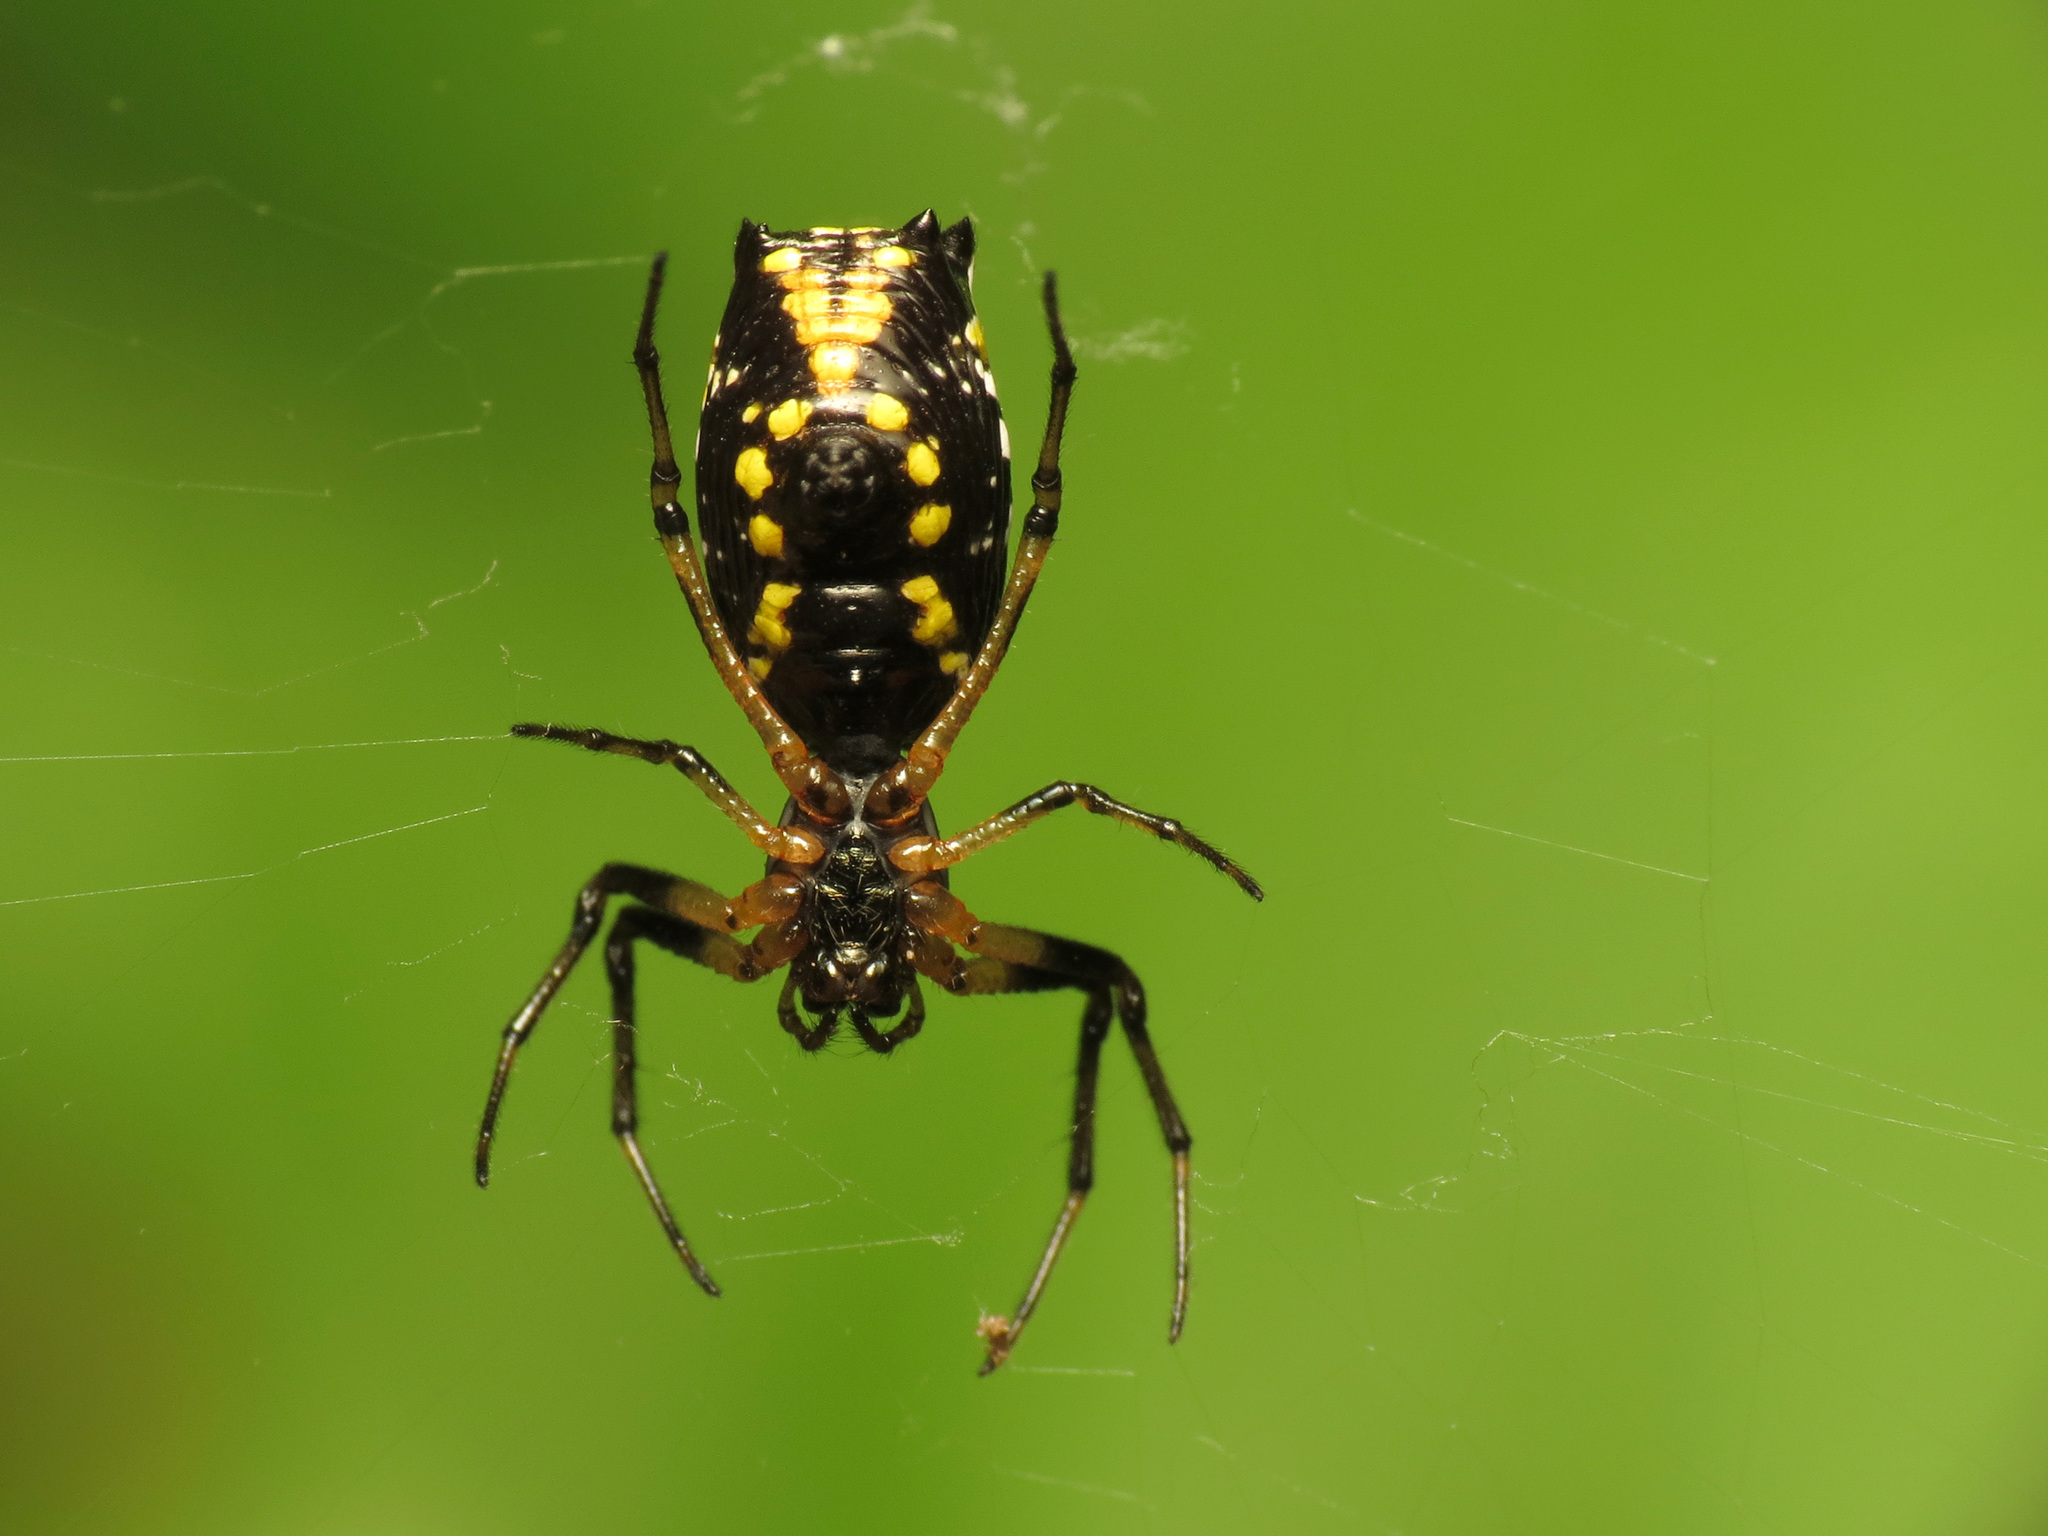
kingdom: Animalia
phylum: Arthropoda
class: Arachnida
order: Araneae
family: Araneidae
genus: Micrathena
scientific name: Micrathena funebris
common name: Orb weavers
